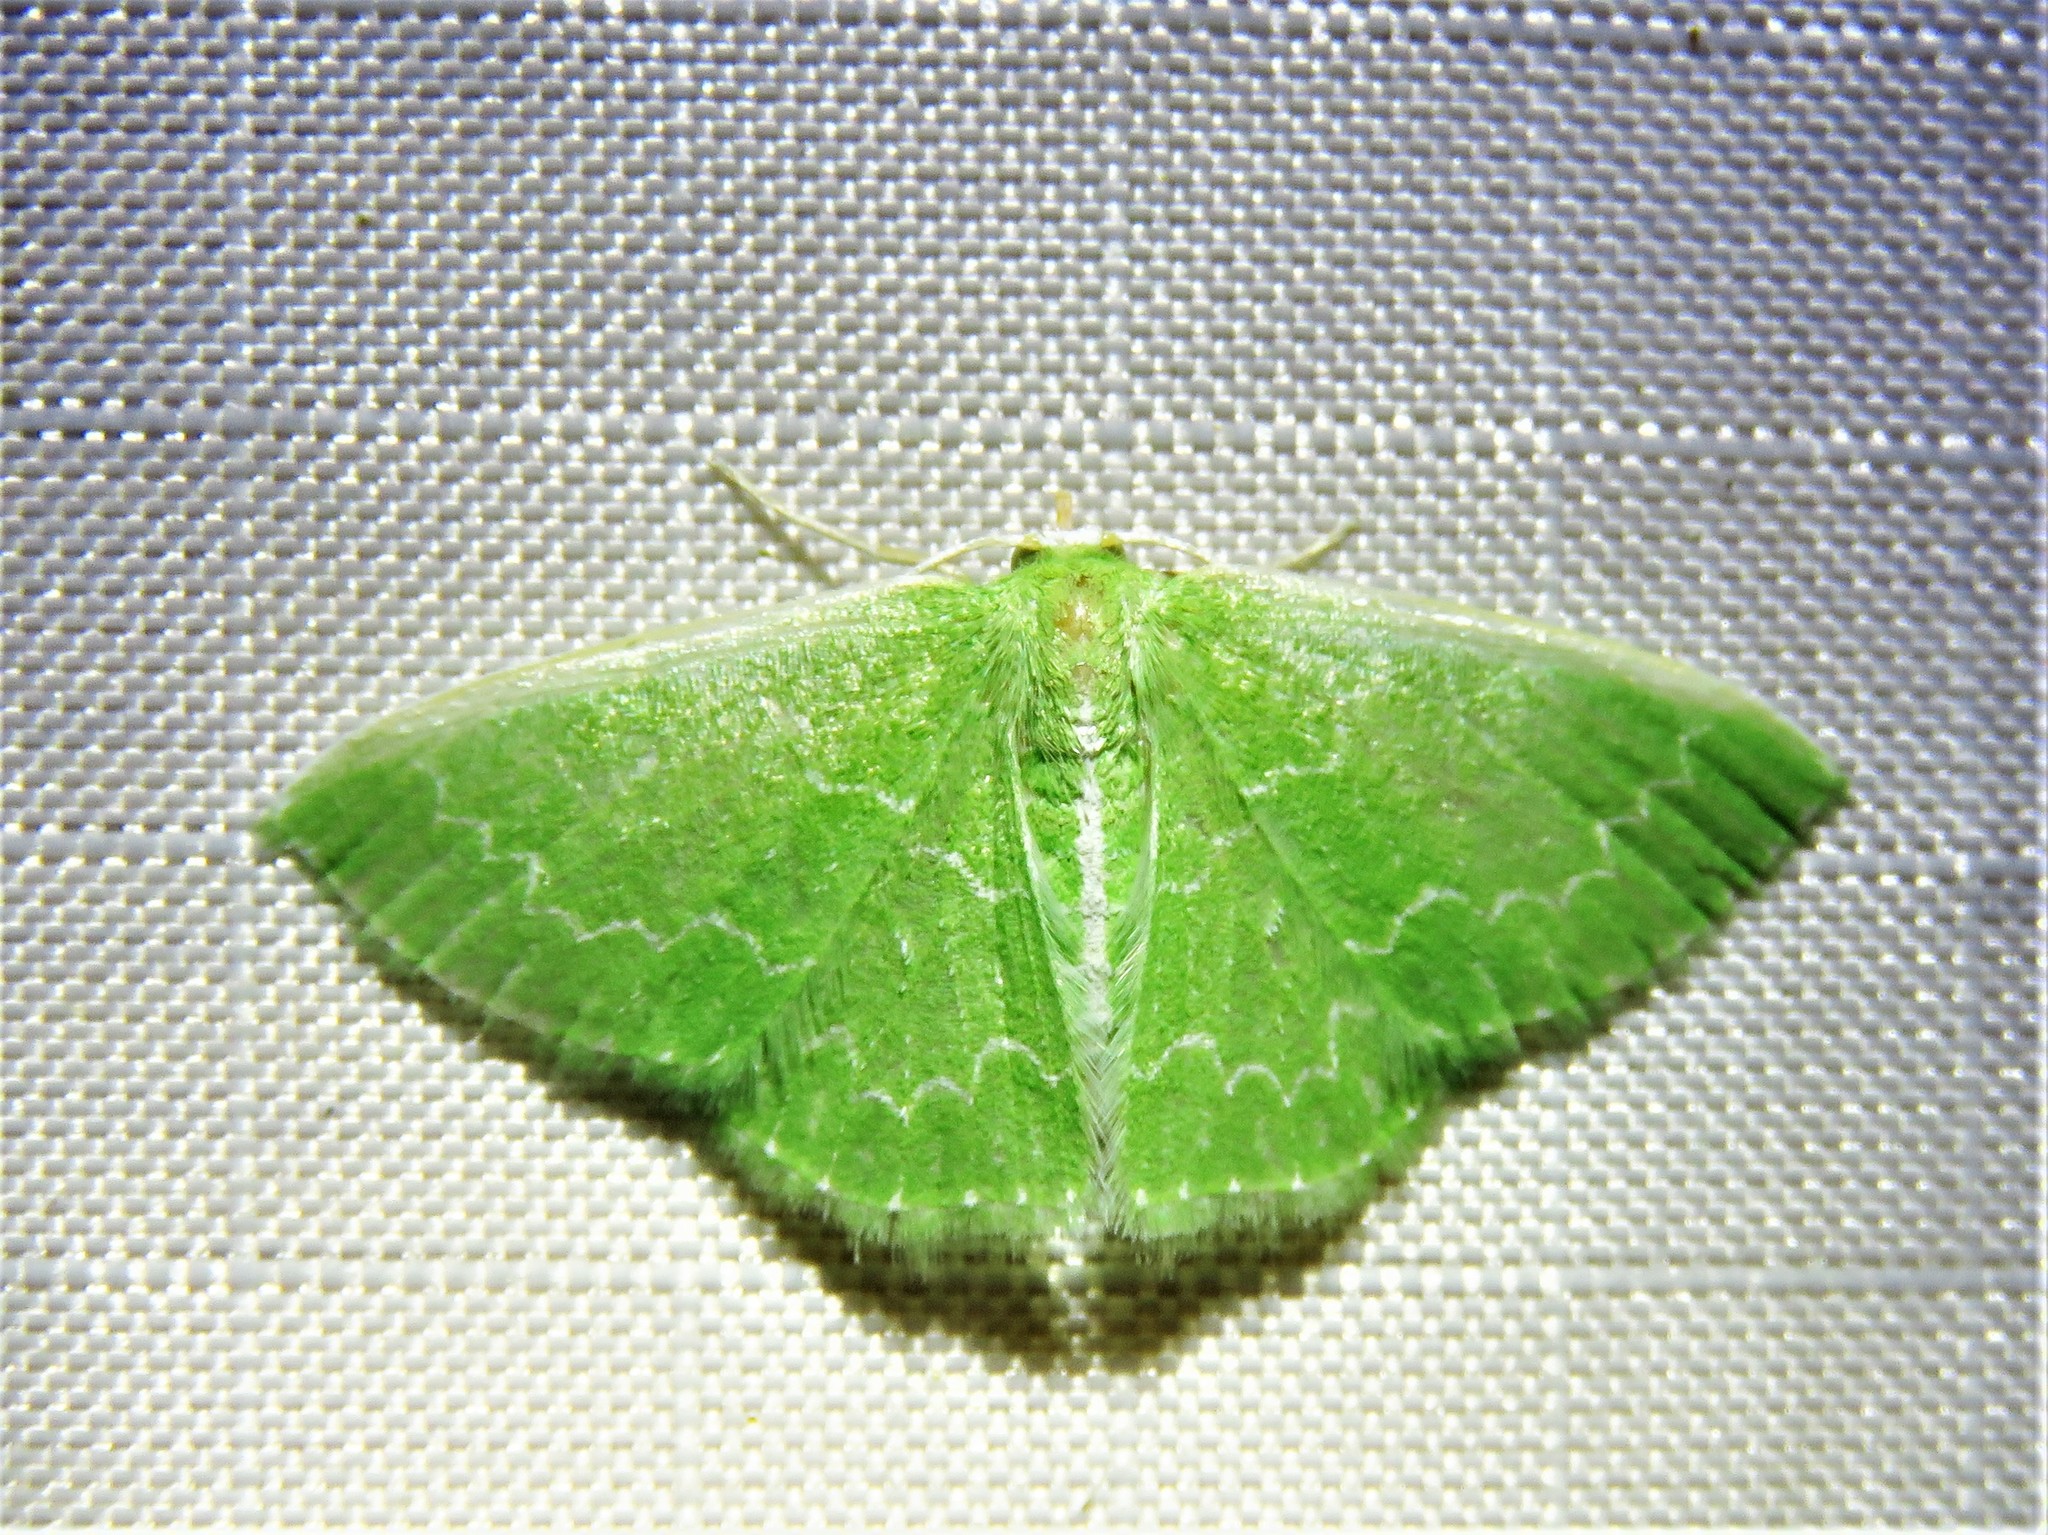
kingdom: Animalia
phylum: Arthropoda
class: Insecta
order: Lepidoptera
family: Geometridae
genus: Synchlora
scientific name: Synchlora frondaria
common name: Southern emerald
